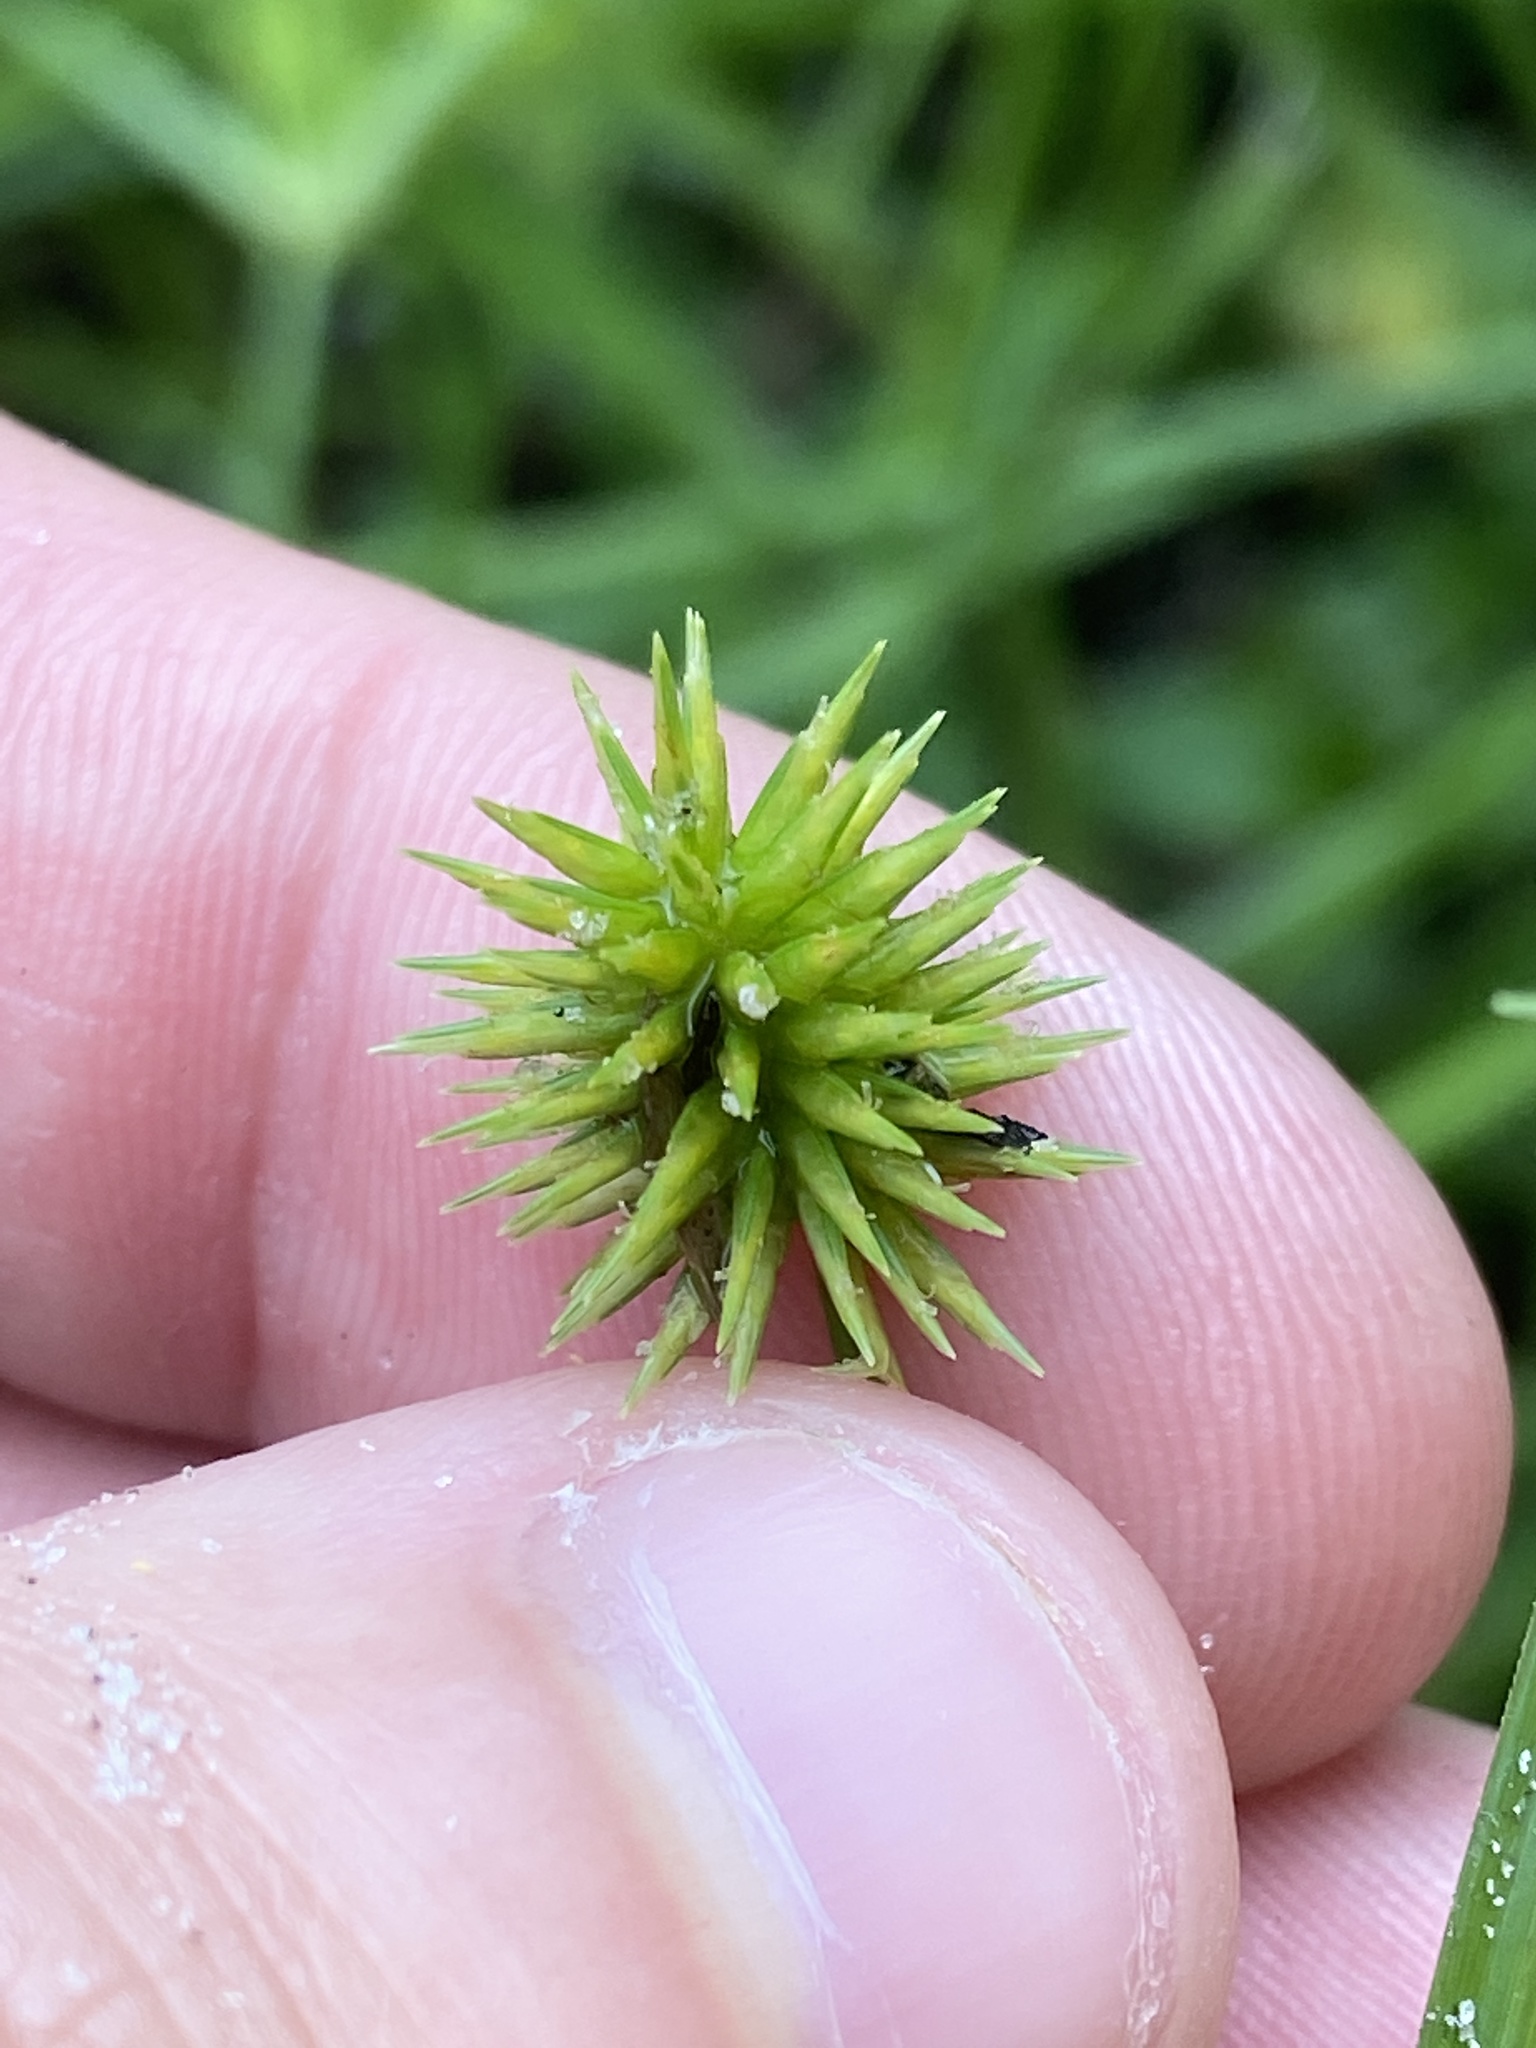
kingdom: Plantae
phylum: Tracheophyta
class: Liliopsida
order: Poales
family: Cyperaceae
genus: Cyperus
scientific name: Cyperus croceus
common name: Baldwin's flatsedge
